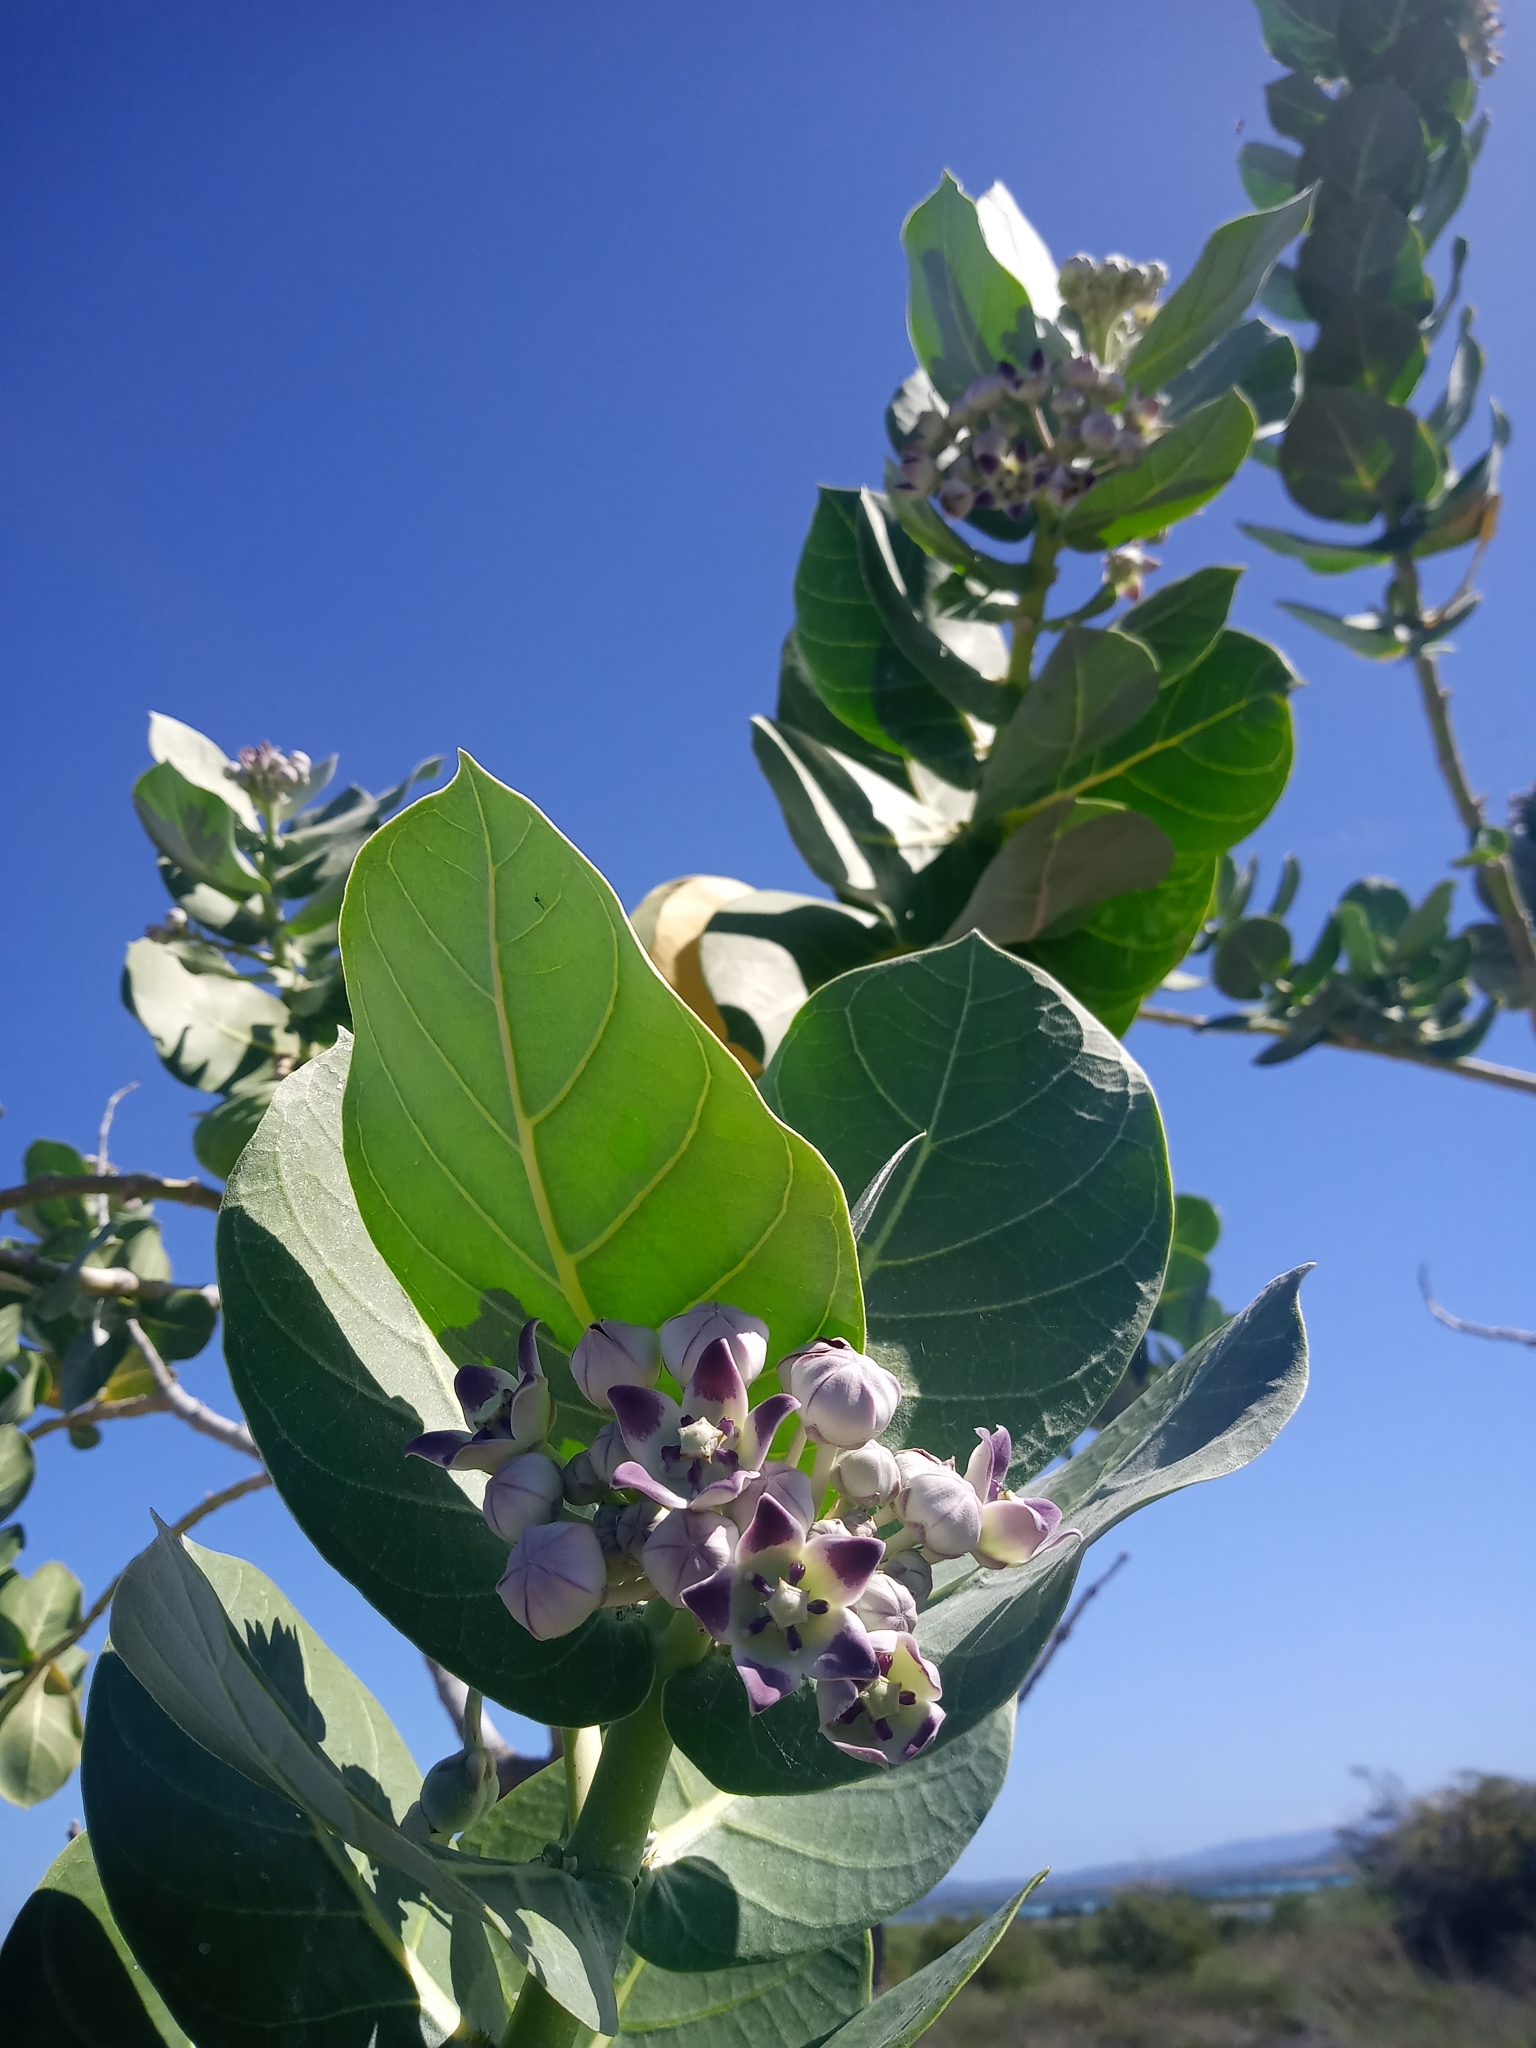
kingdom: Plantae
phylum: Tracheophyta
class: Magnoliopsida
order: Gentianales
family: Apocynaceae
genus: Calotropis
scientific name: Calotropis procera
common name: Roostertree
